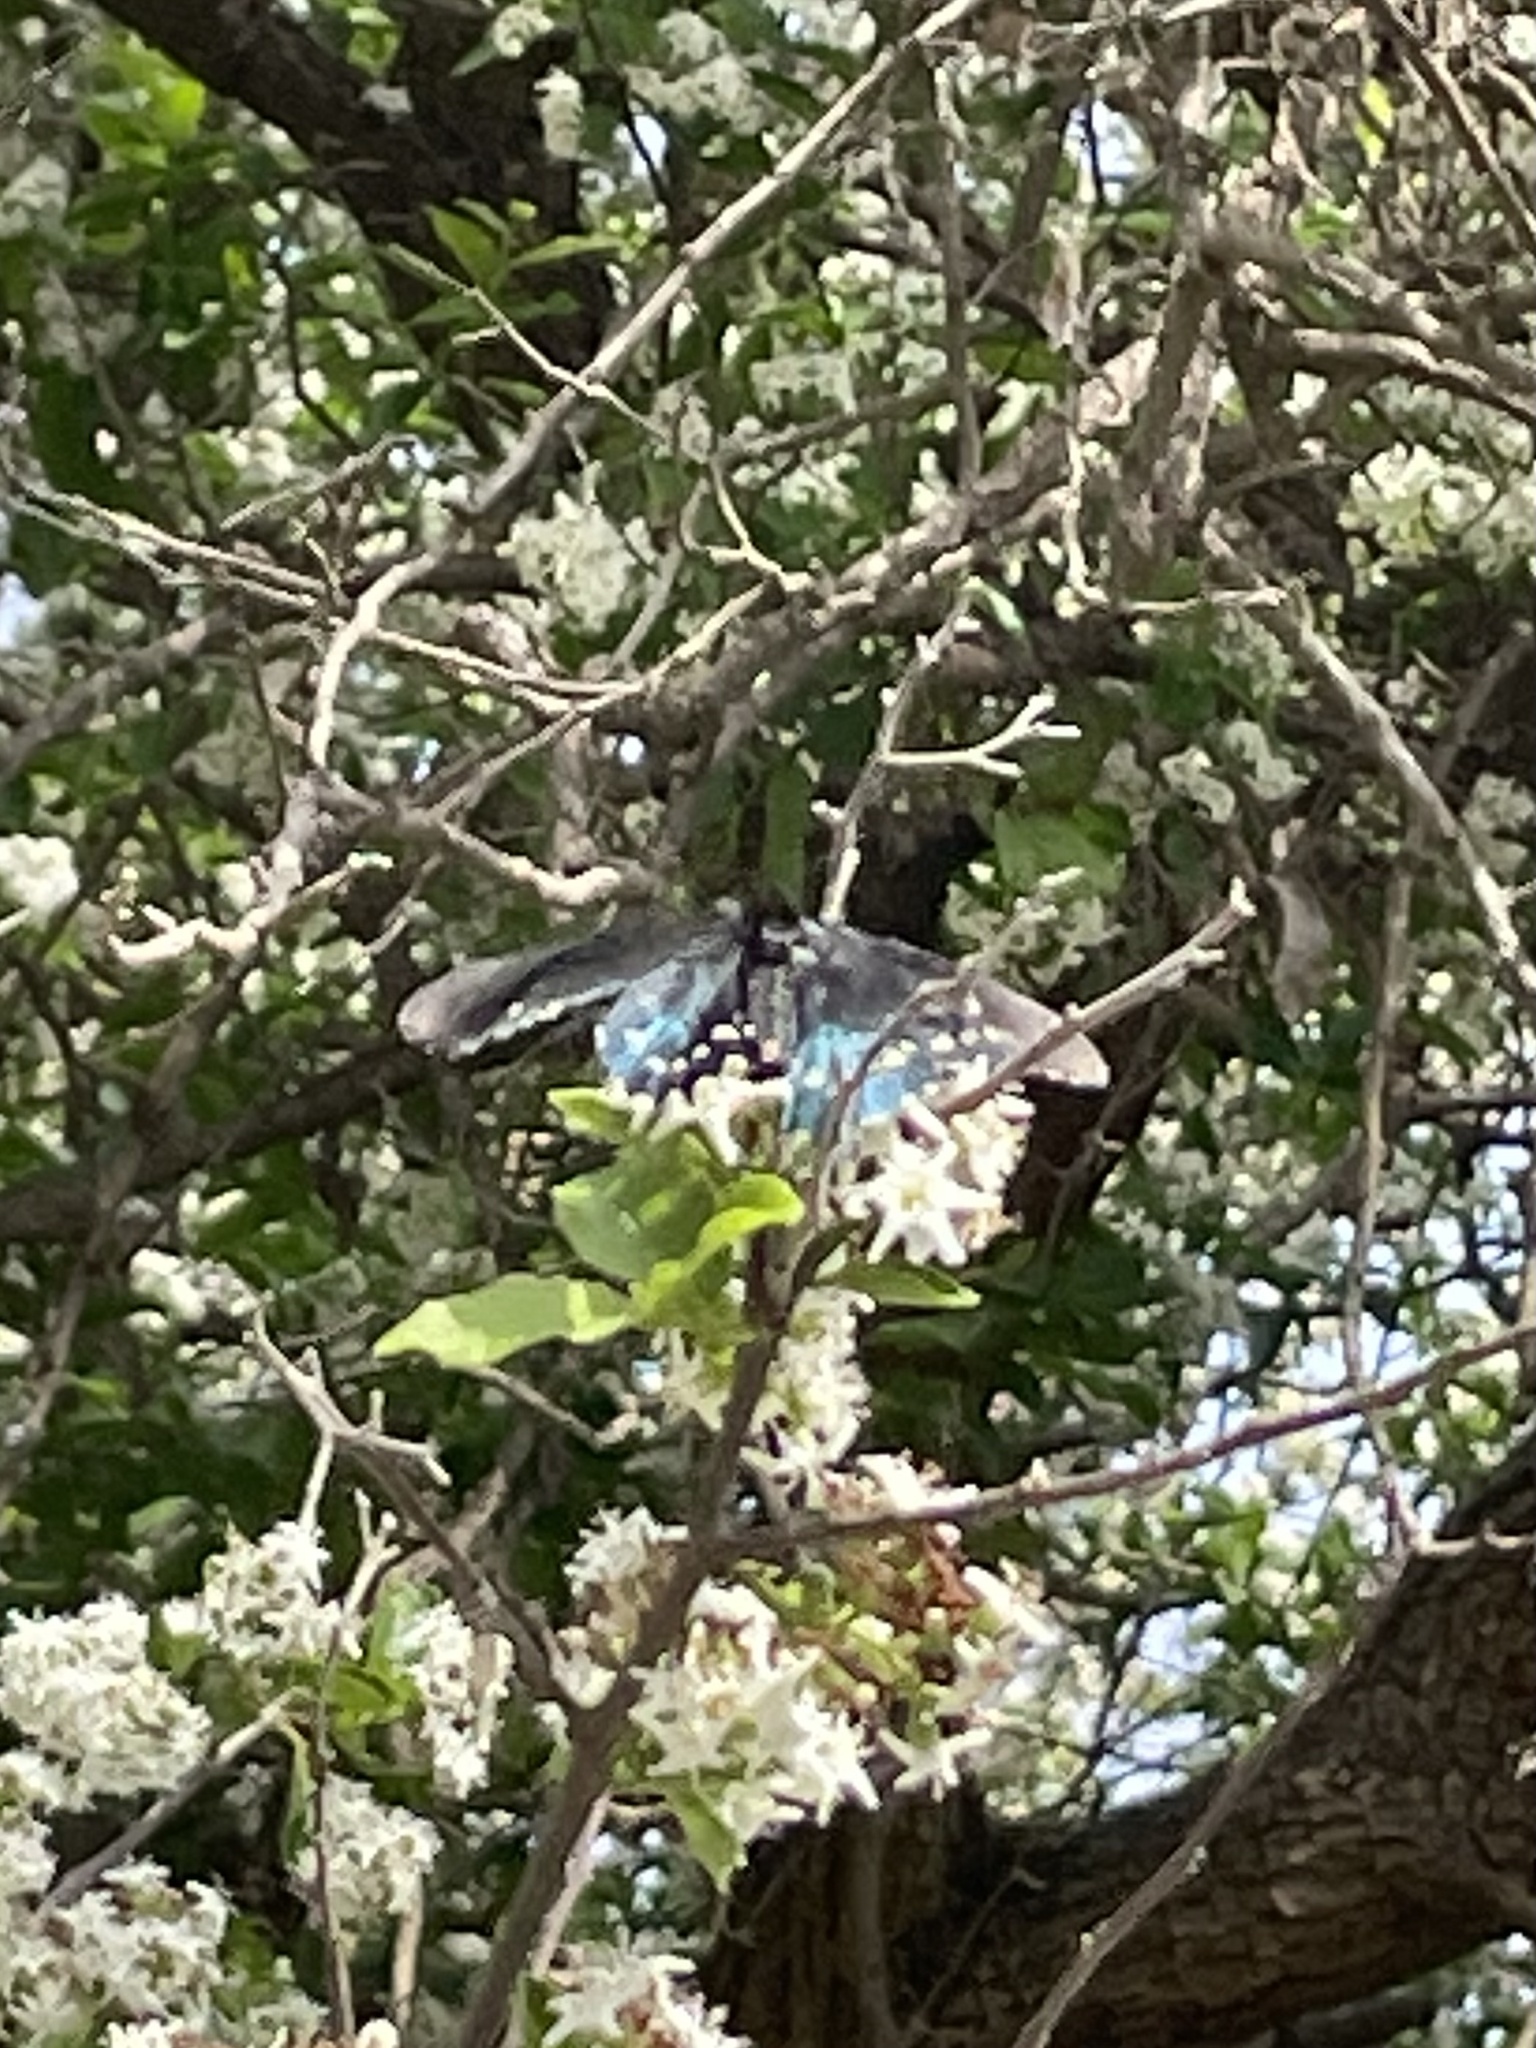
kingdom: Animalia
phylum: Arthropoda
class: Insecta
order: Lepidoptera
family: Papilionidae
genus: Battus
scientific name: Battus philenor
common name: Pipevine swallowtail
